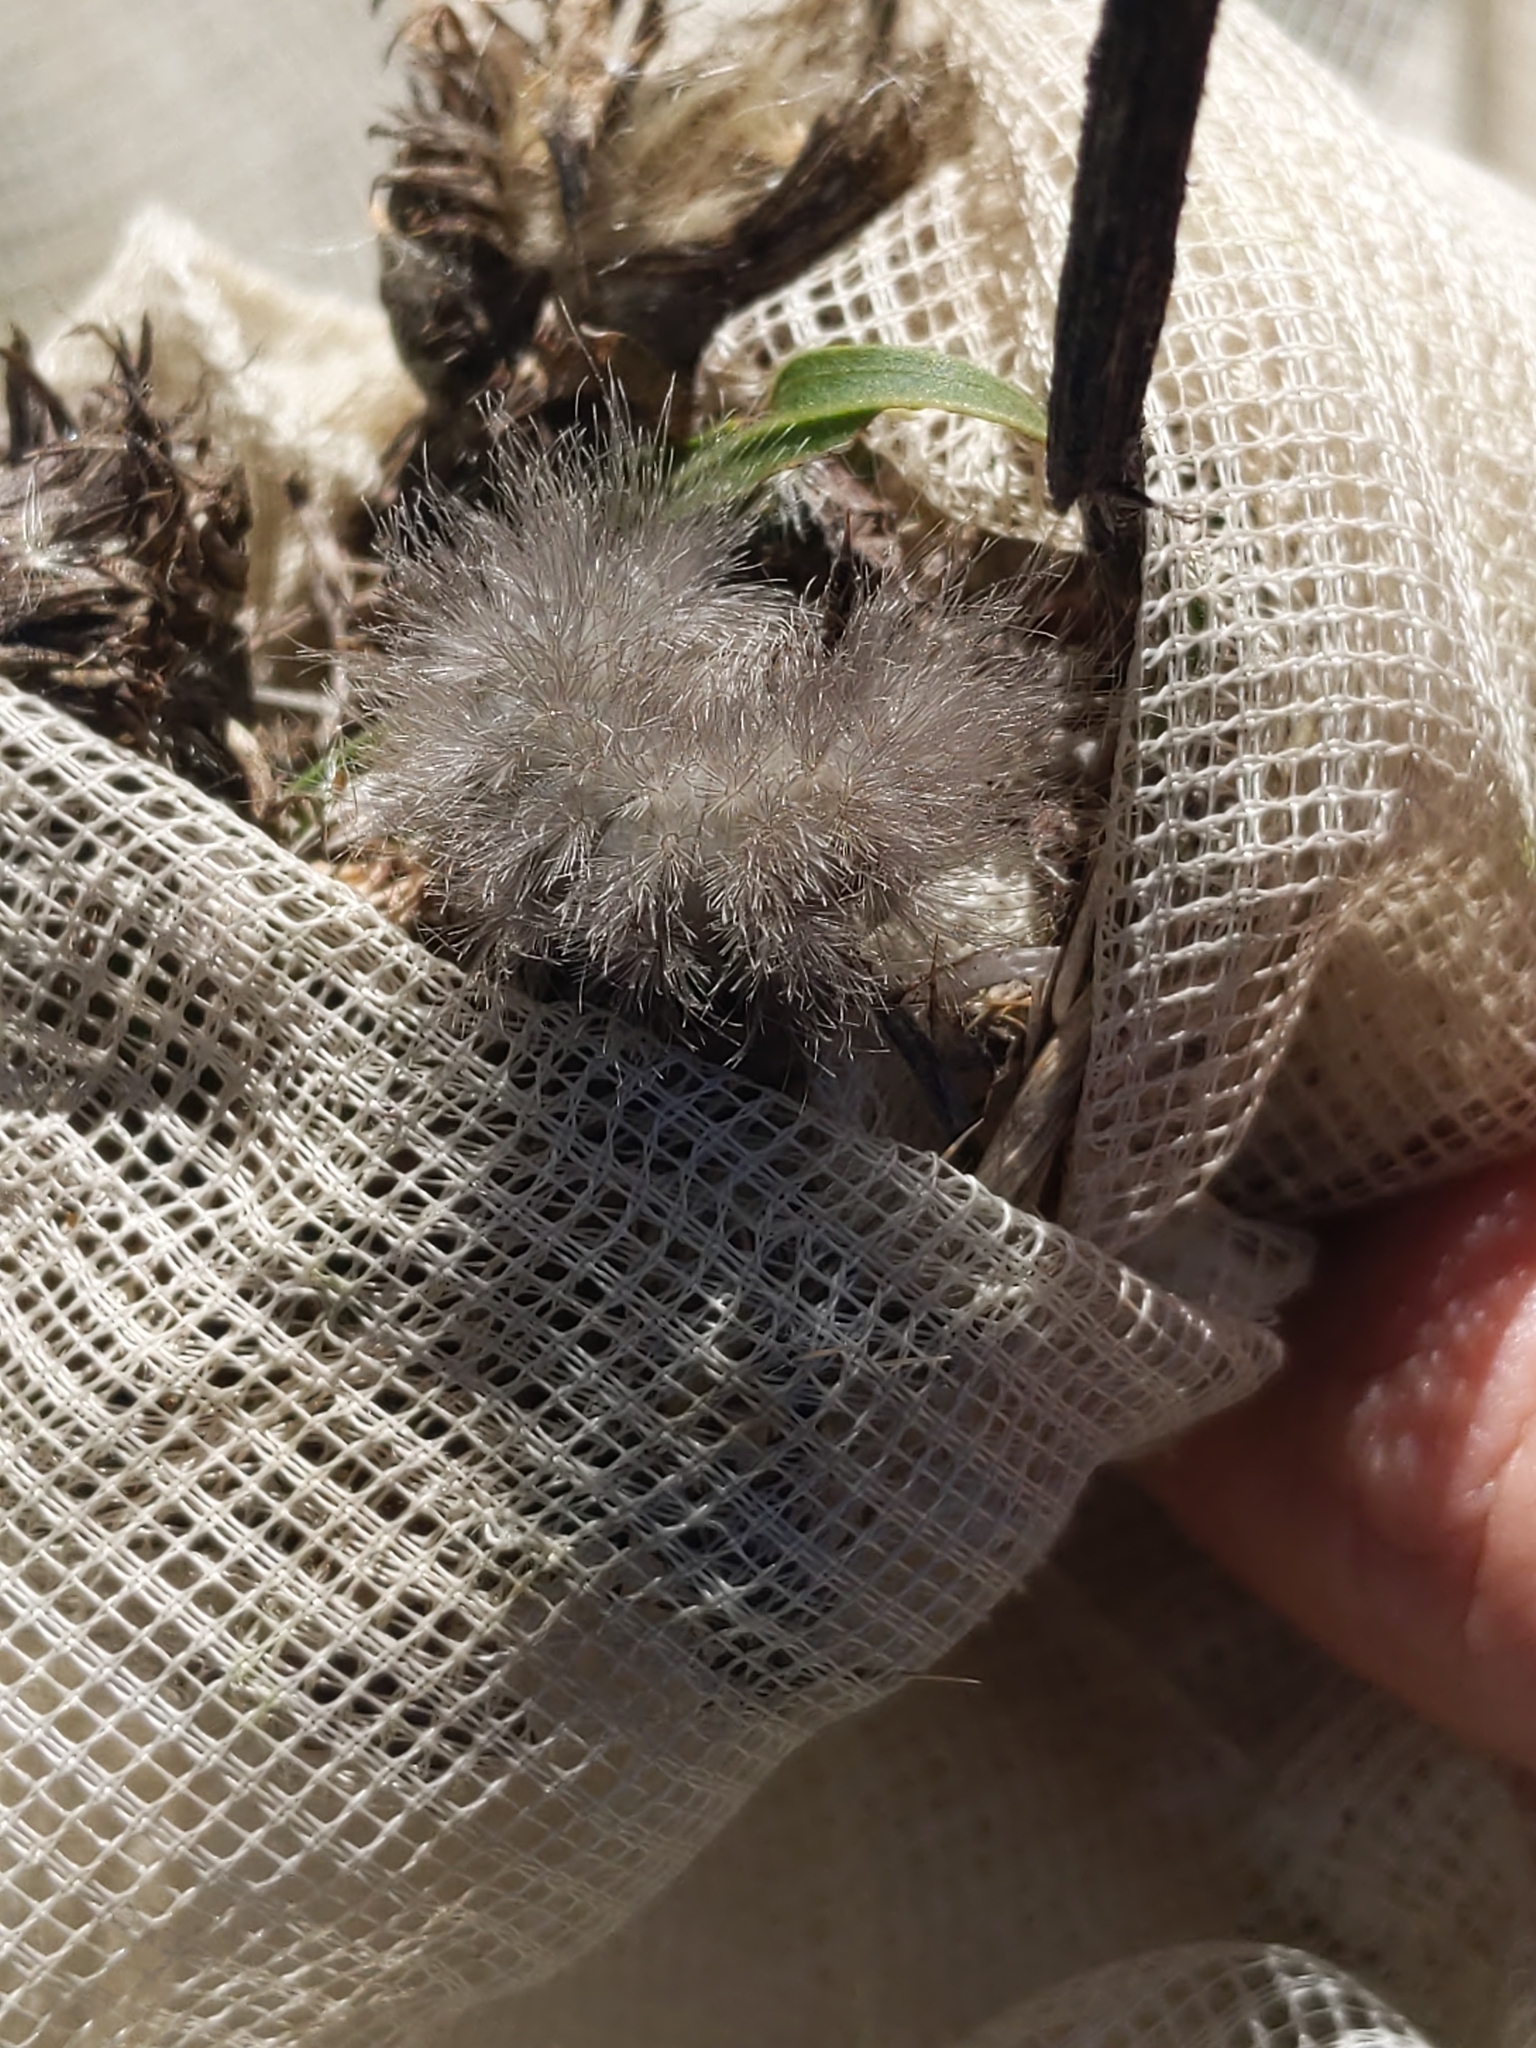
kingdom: Animalia
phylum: Arthropoda
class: Insecta
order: Lepidoptera
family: Erebidae
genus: Cycnia
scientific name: Cycnia tenera
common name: Delicate cycnia moth
